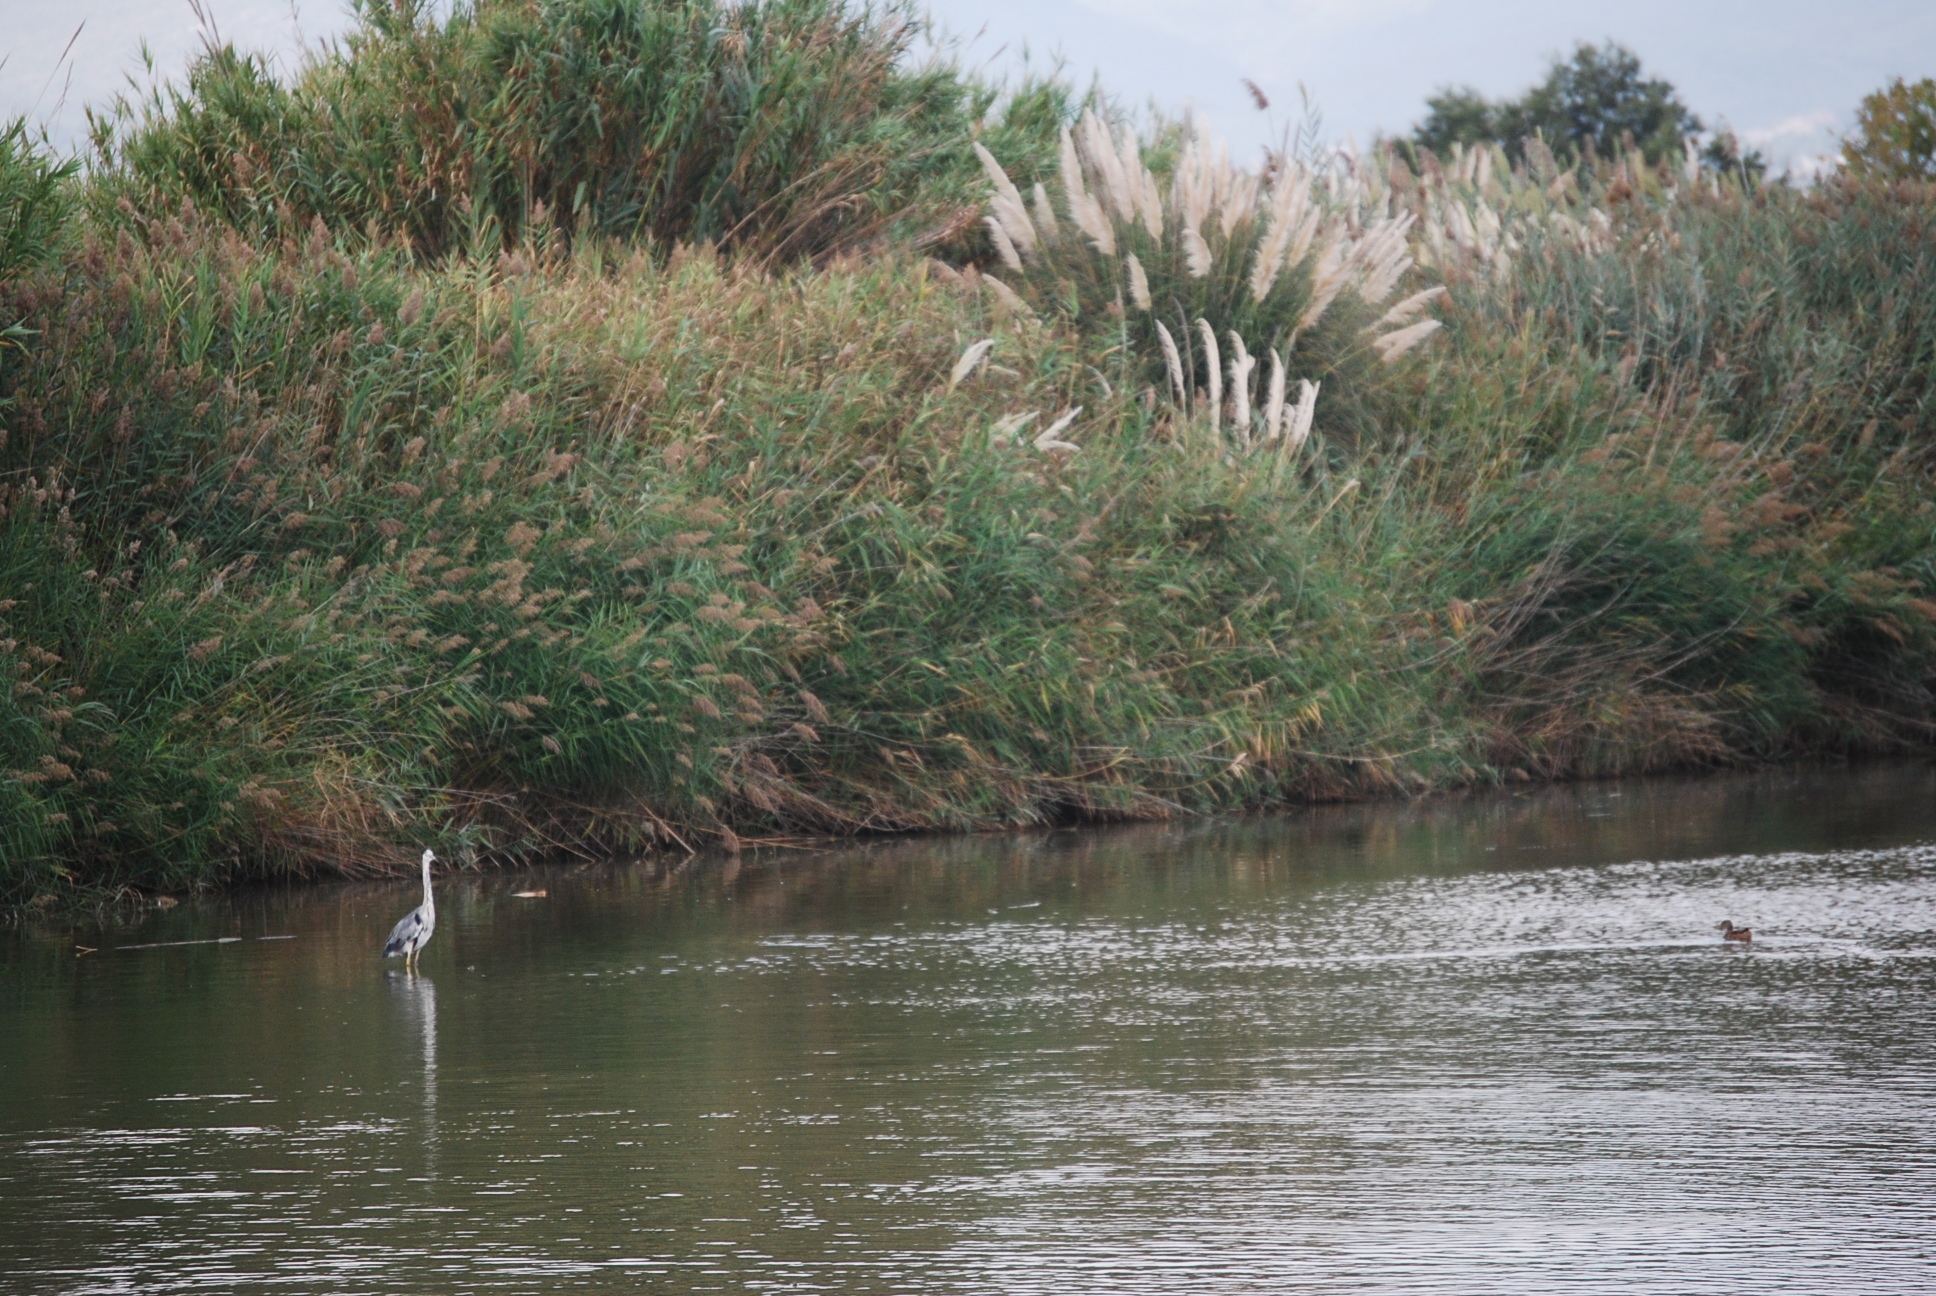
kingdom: Animalia
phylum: Chordata
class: Aves
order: Pelecaniformes
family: Ardeidae
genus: Egretta
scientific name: Egretta garzetta
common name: Little egret
